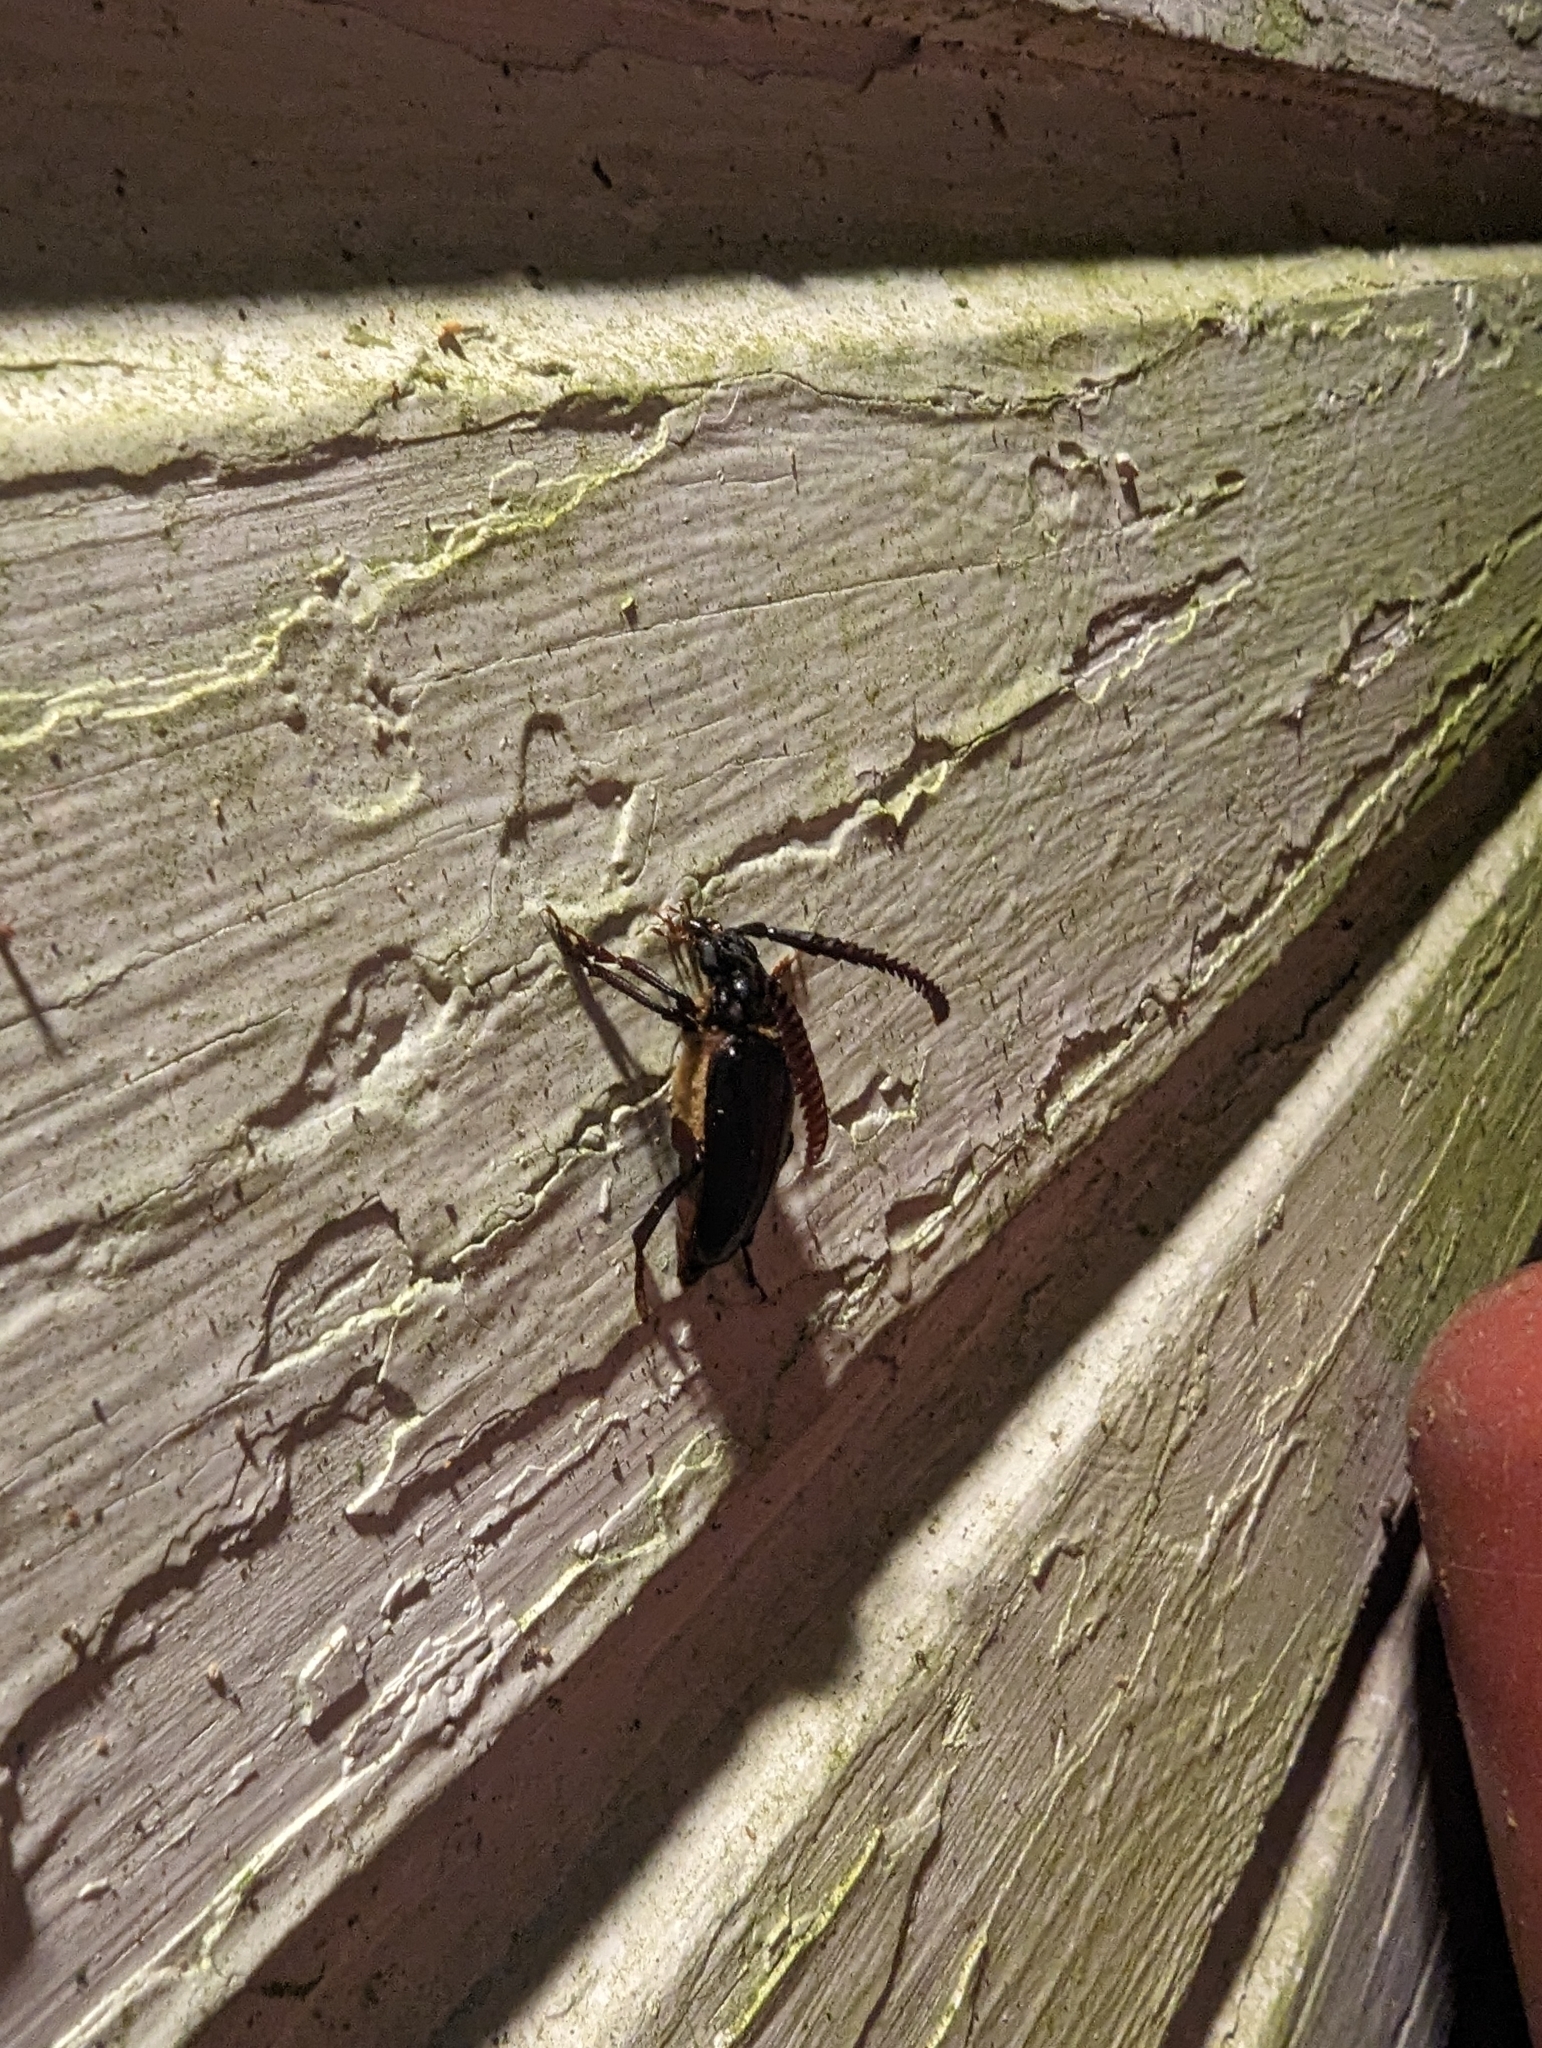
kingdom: Animalia
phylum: Arthropoda
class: Insecta
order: Coleoptera
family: Cerambycidae
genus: Prionus
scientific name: Prionus imbricornis
